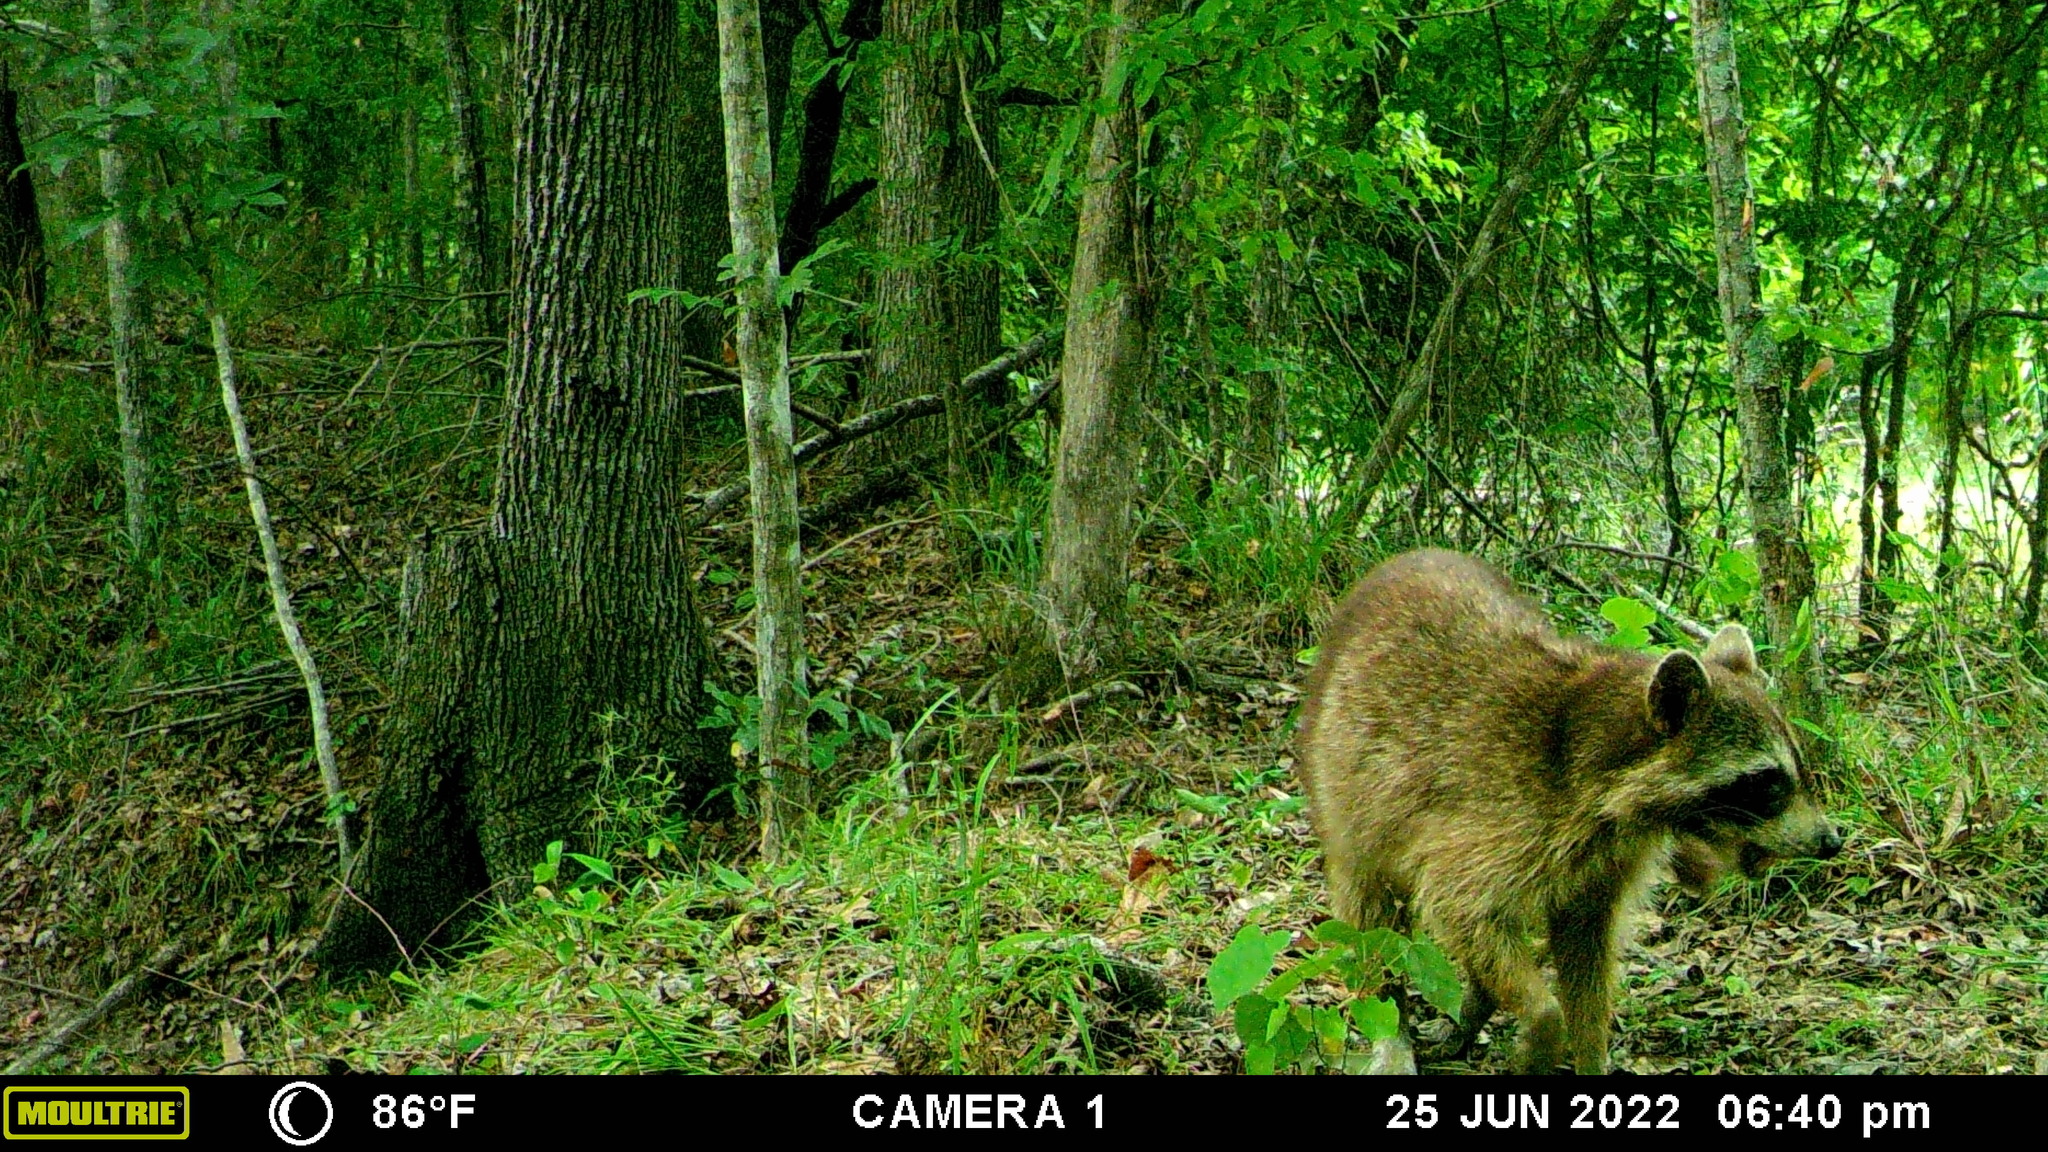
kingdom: Animalia
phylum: Chordata
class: Mammalia
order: Carnivora
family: Procyonidae
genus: Procyon
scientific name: Procyon lotor
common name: Raccoon
